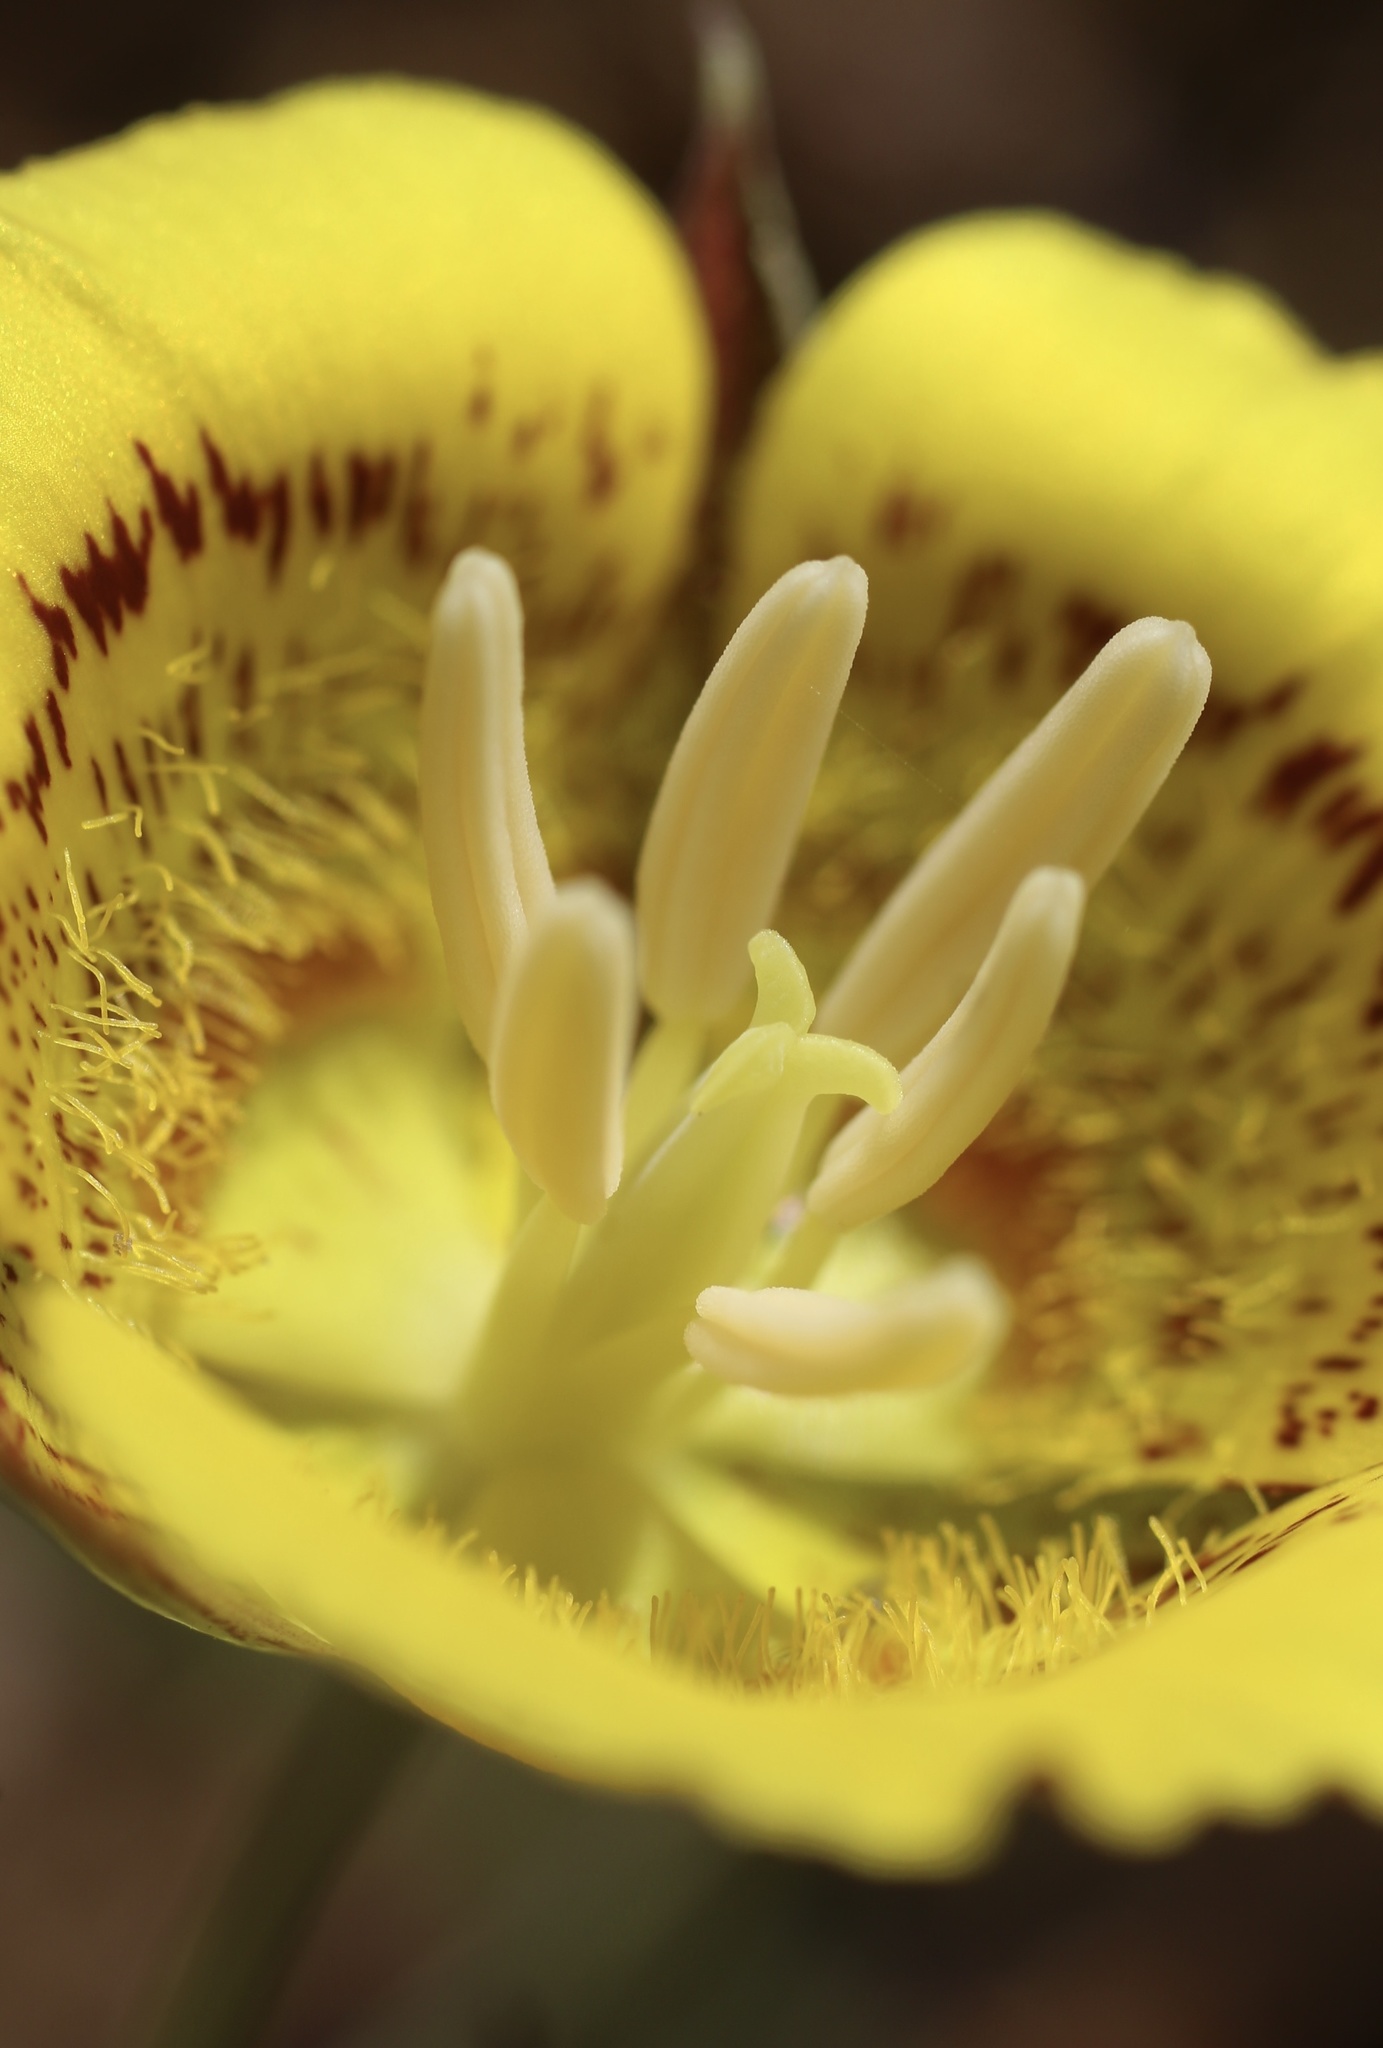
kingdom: Plantae
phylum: Tracheophyta
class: Liliopsida
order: Liliales
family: Liliaceae
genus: Calochortus
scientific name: Calochortus luteus
